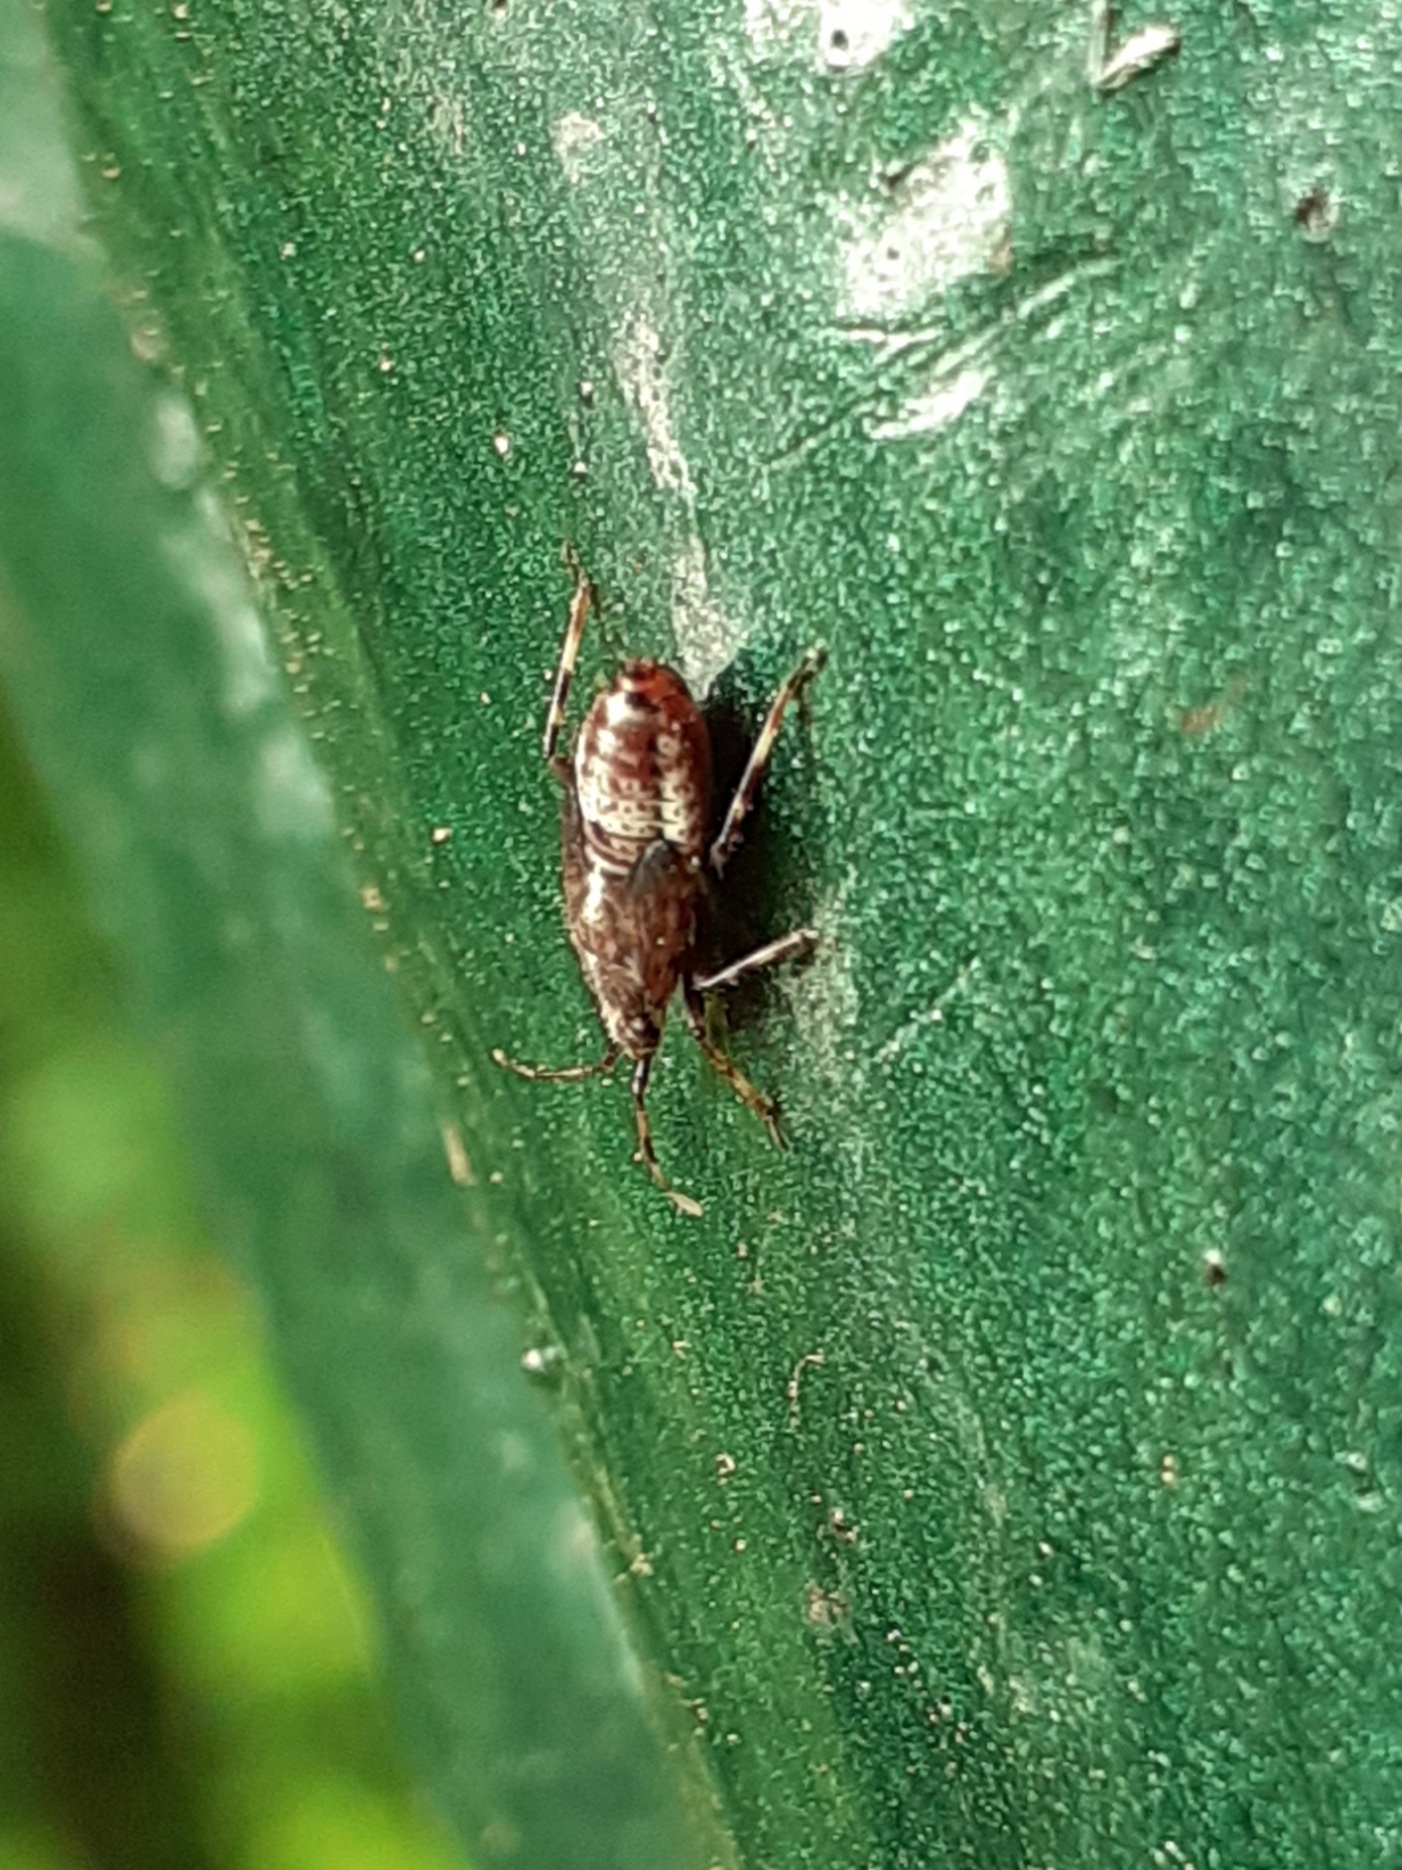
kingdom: Animalia
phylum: Arthropoda
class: Insecta
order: Hemiptera
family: Miridae
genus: Deraeocoris
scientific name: Deraeocoris flavilinea
